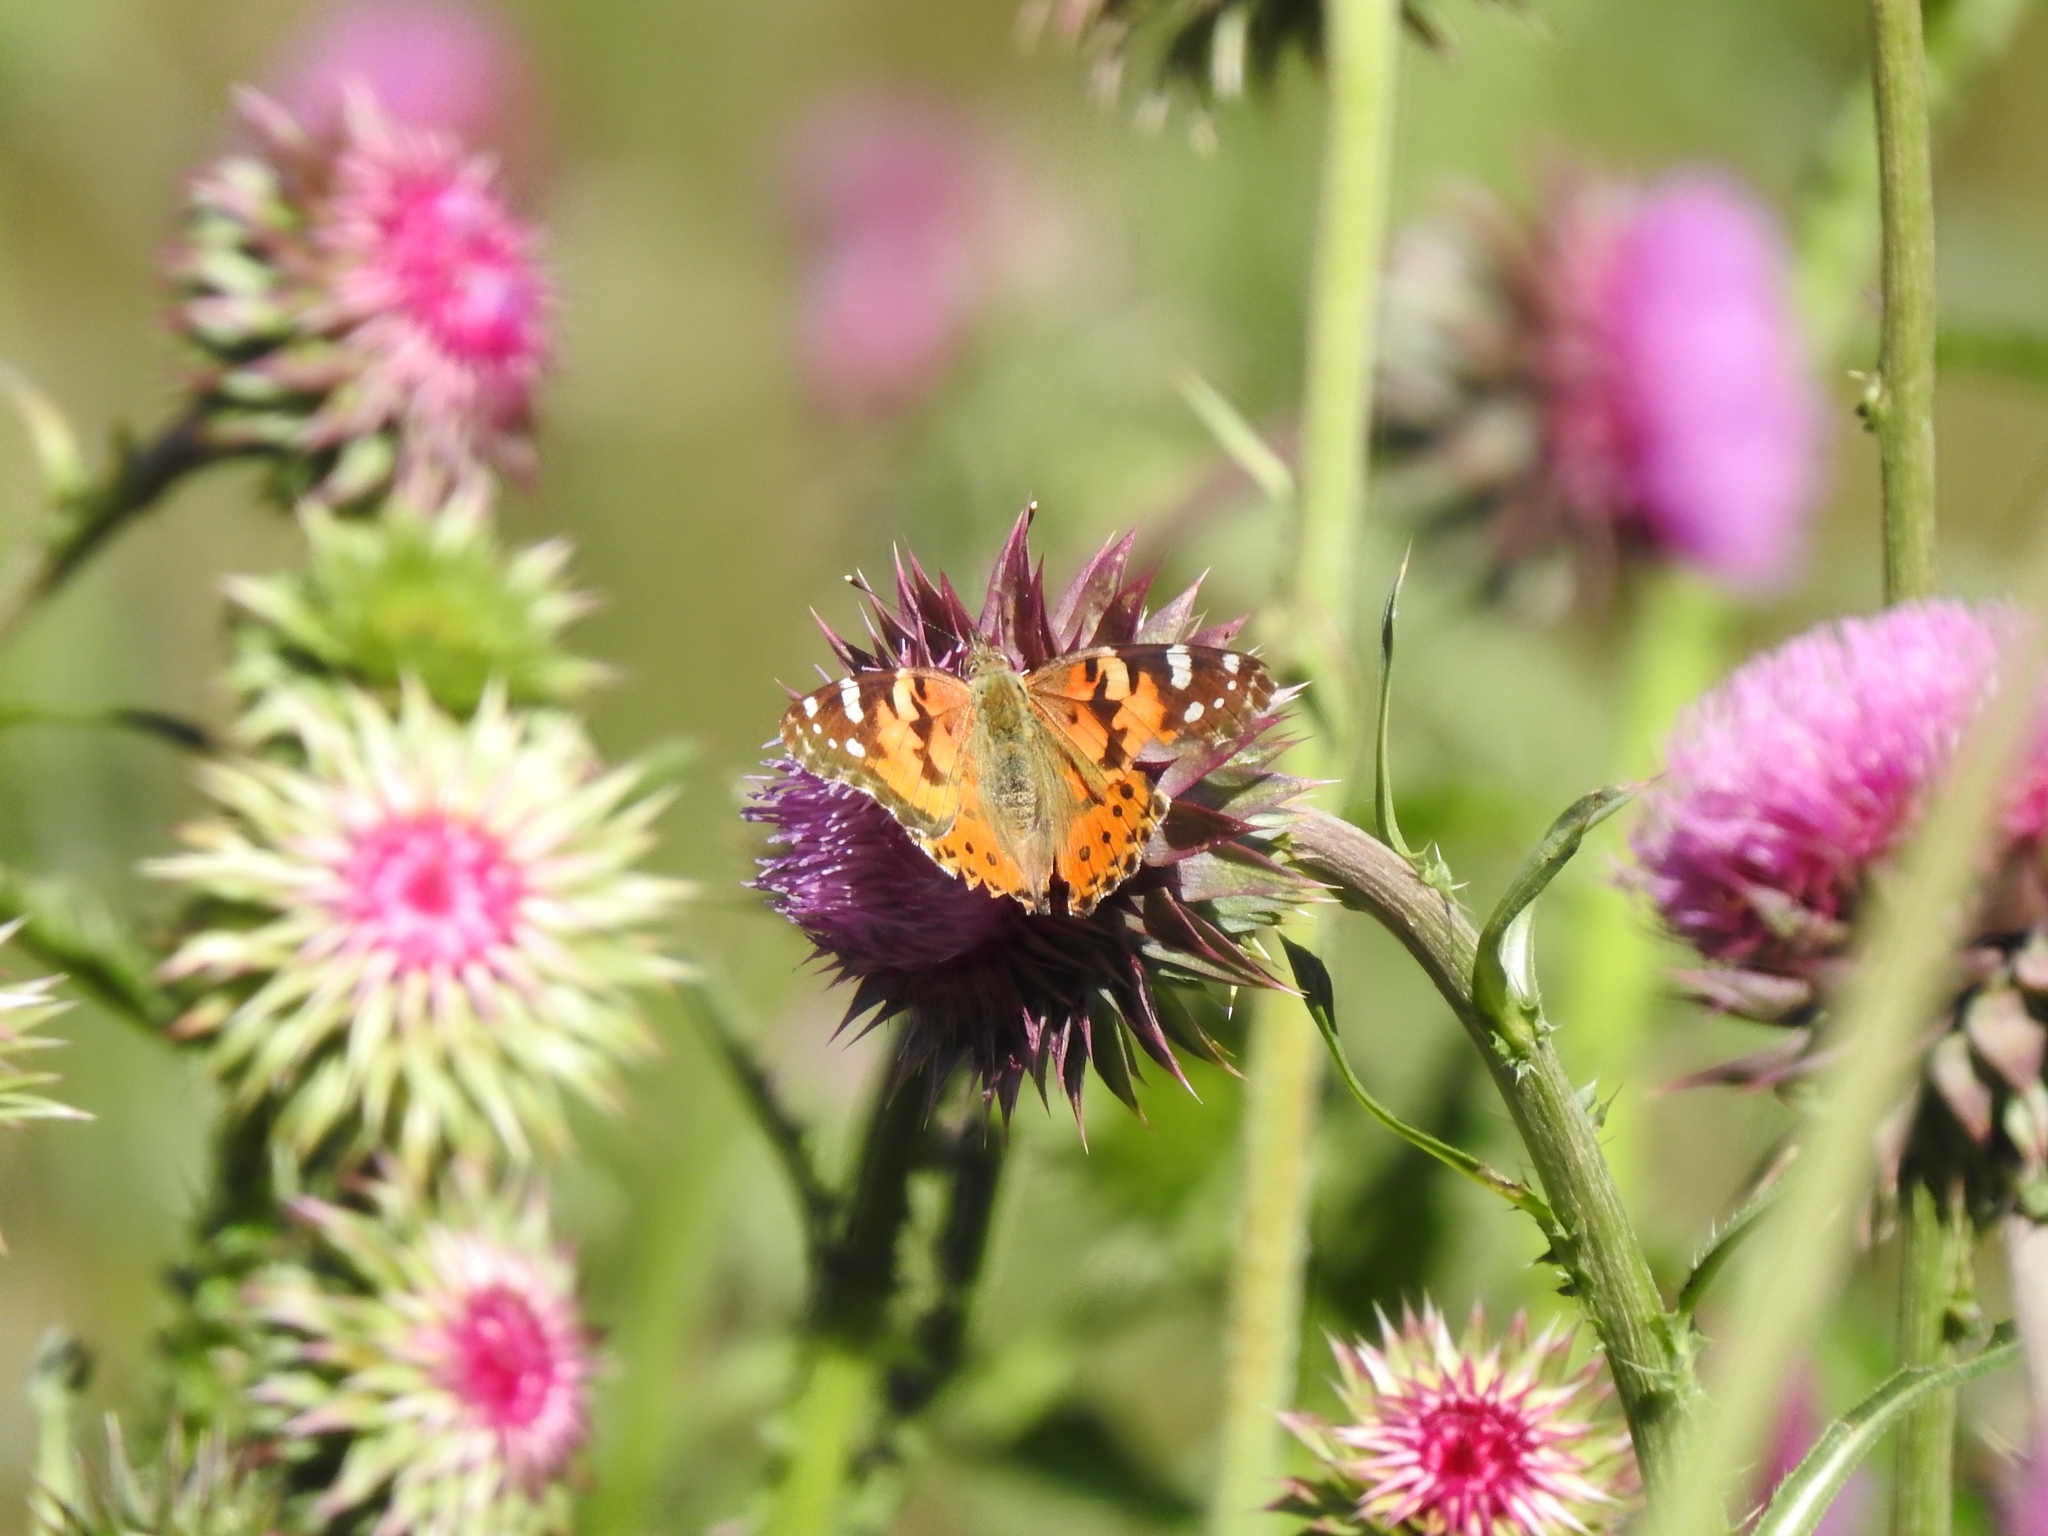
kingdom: Animalia
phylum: Arthropoda
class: Insecta
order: Lepidoptera
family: Nymphalidae
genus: Vanessa
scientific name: Vanessa cardui
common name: Painted lady
